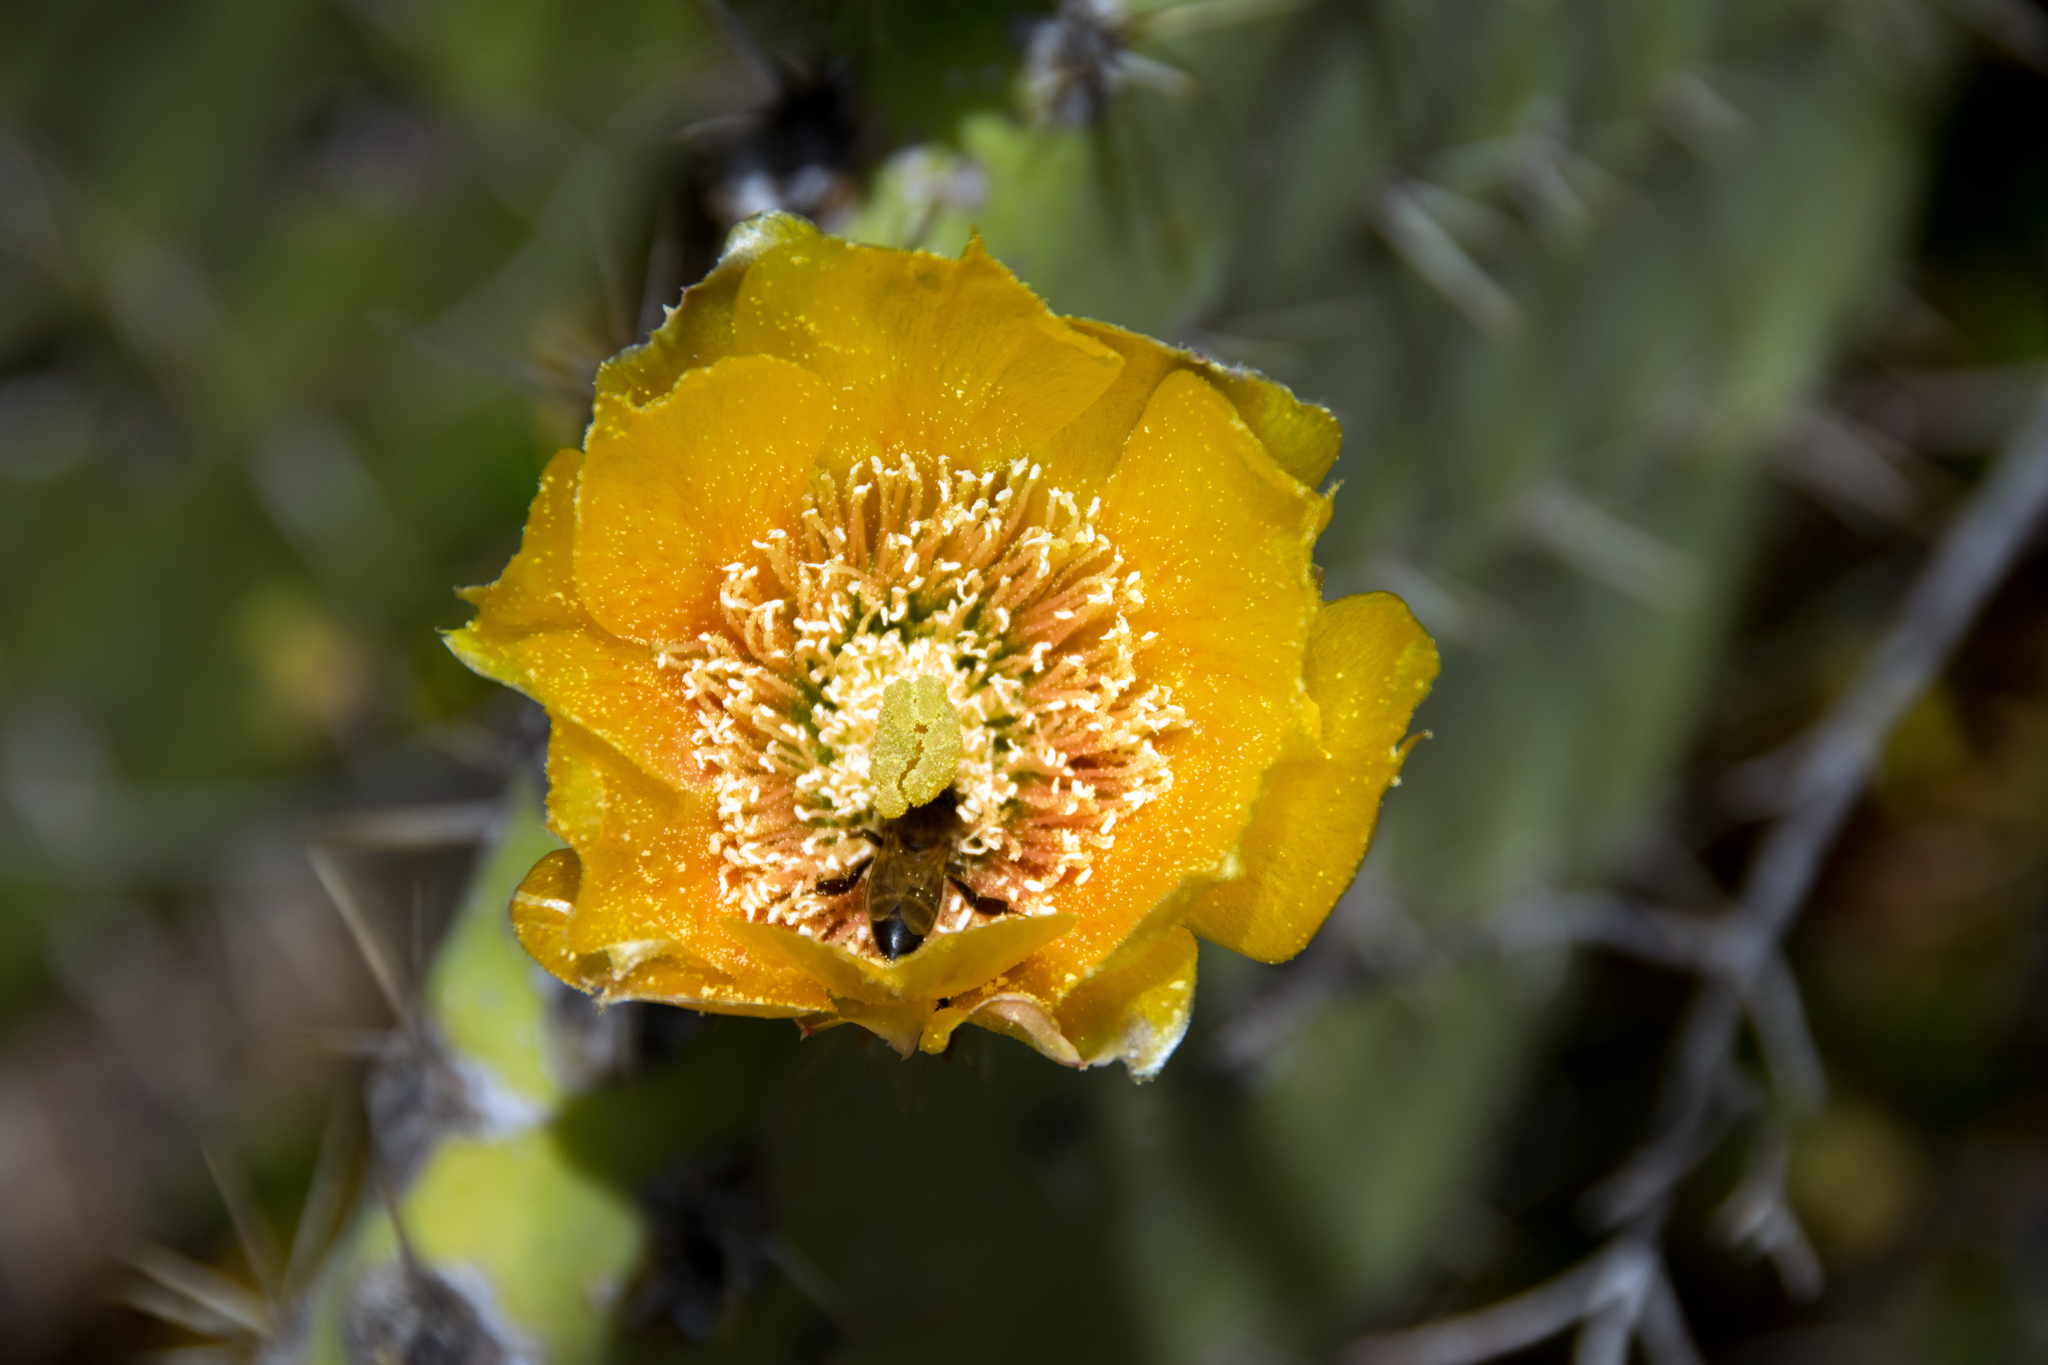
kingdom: Plantae
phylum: Tracheophyta
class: Magnoliopsida
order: Caryophyllales
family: Cactaceae
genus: Opuntia
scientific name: Opuntia ficus-indica
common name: Barbary fig
